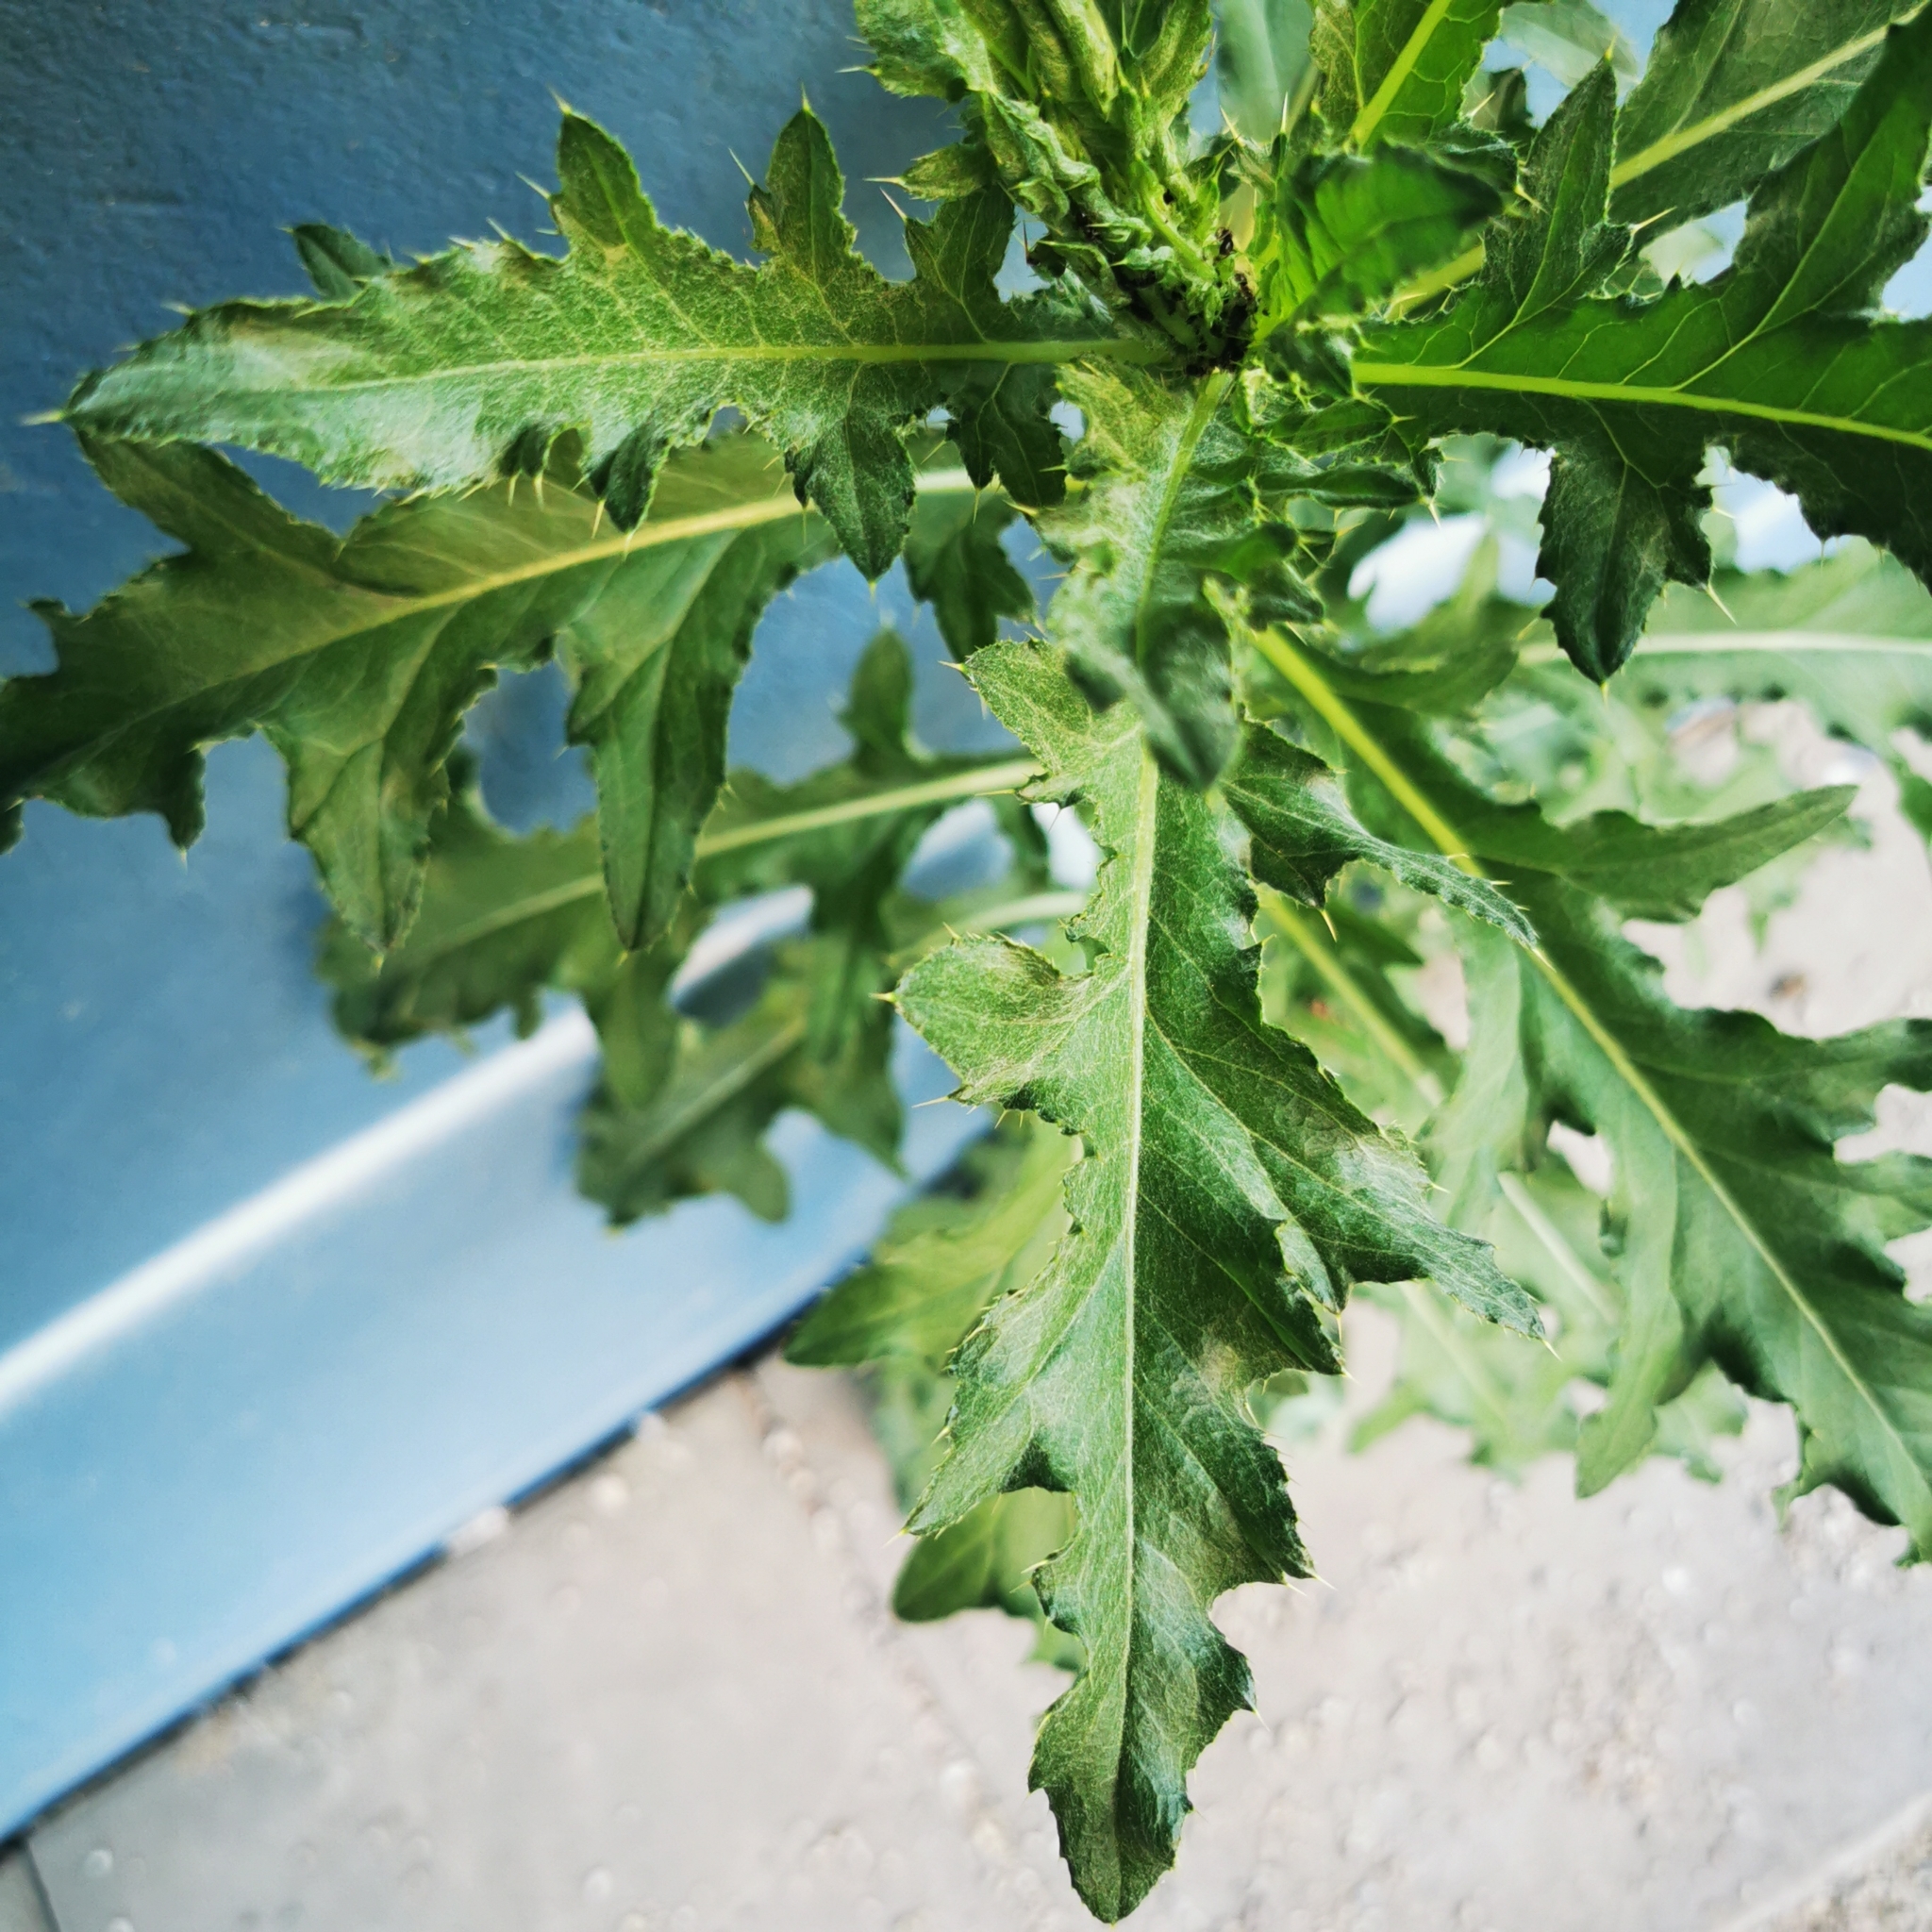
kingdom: Plantae
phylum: Tracheophyta
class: Magnoliopsida
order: Asterales
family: Asteraceae
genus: Cirsium
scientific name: Cirsium arvense
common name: Creeping thistle
